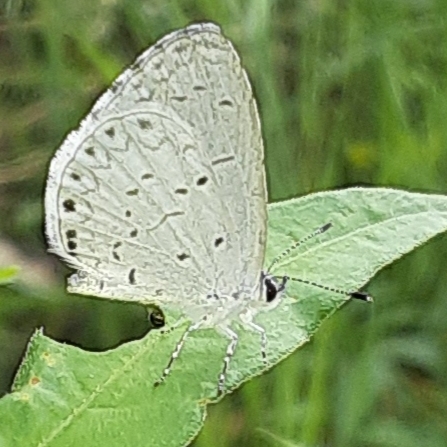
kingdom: Animalia
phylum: Arthropoda
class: Insecta
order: Lepidoptera
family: Lycaenidae
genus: Cyaniris
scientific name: Cyaniris neglecta
